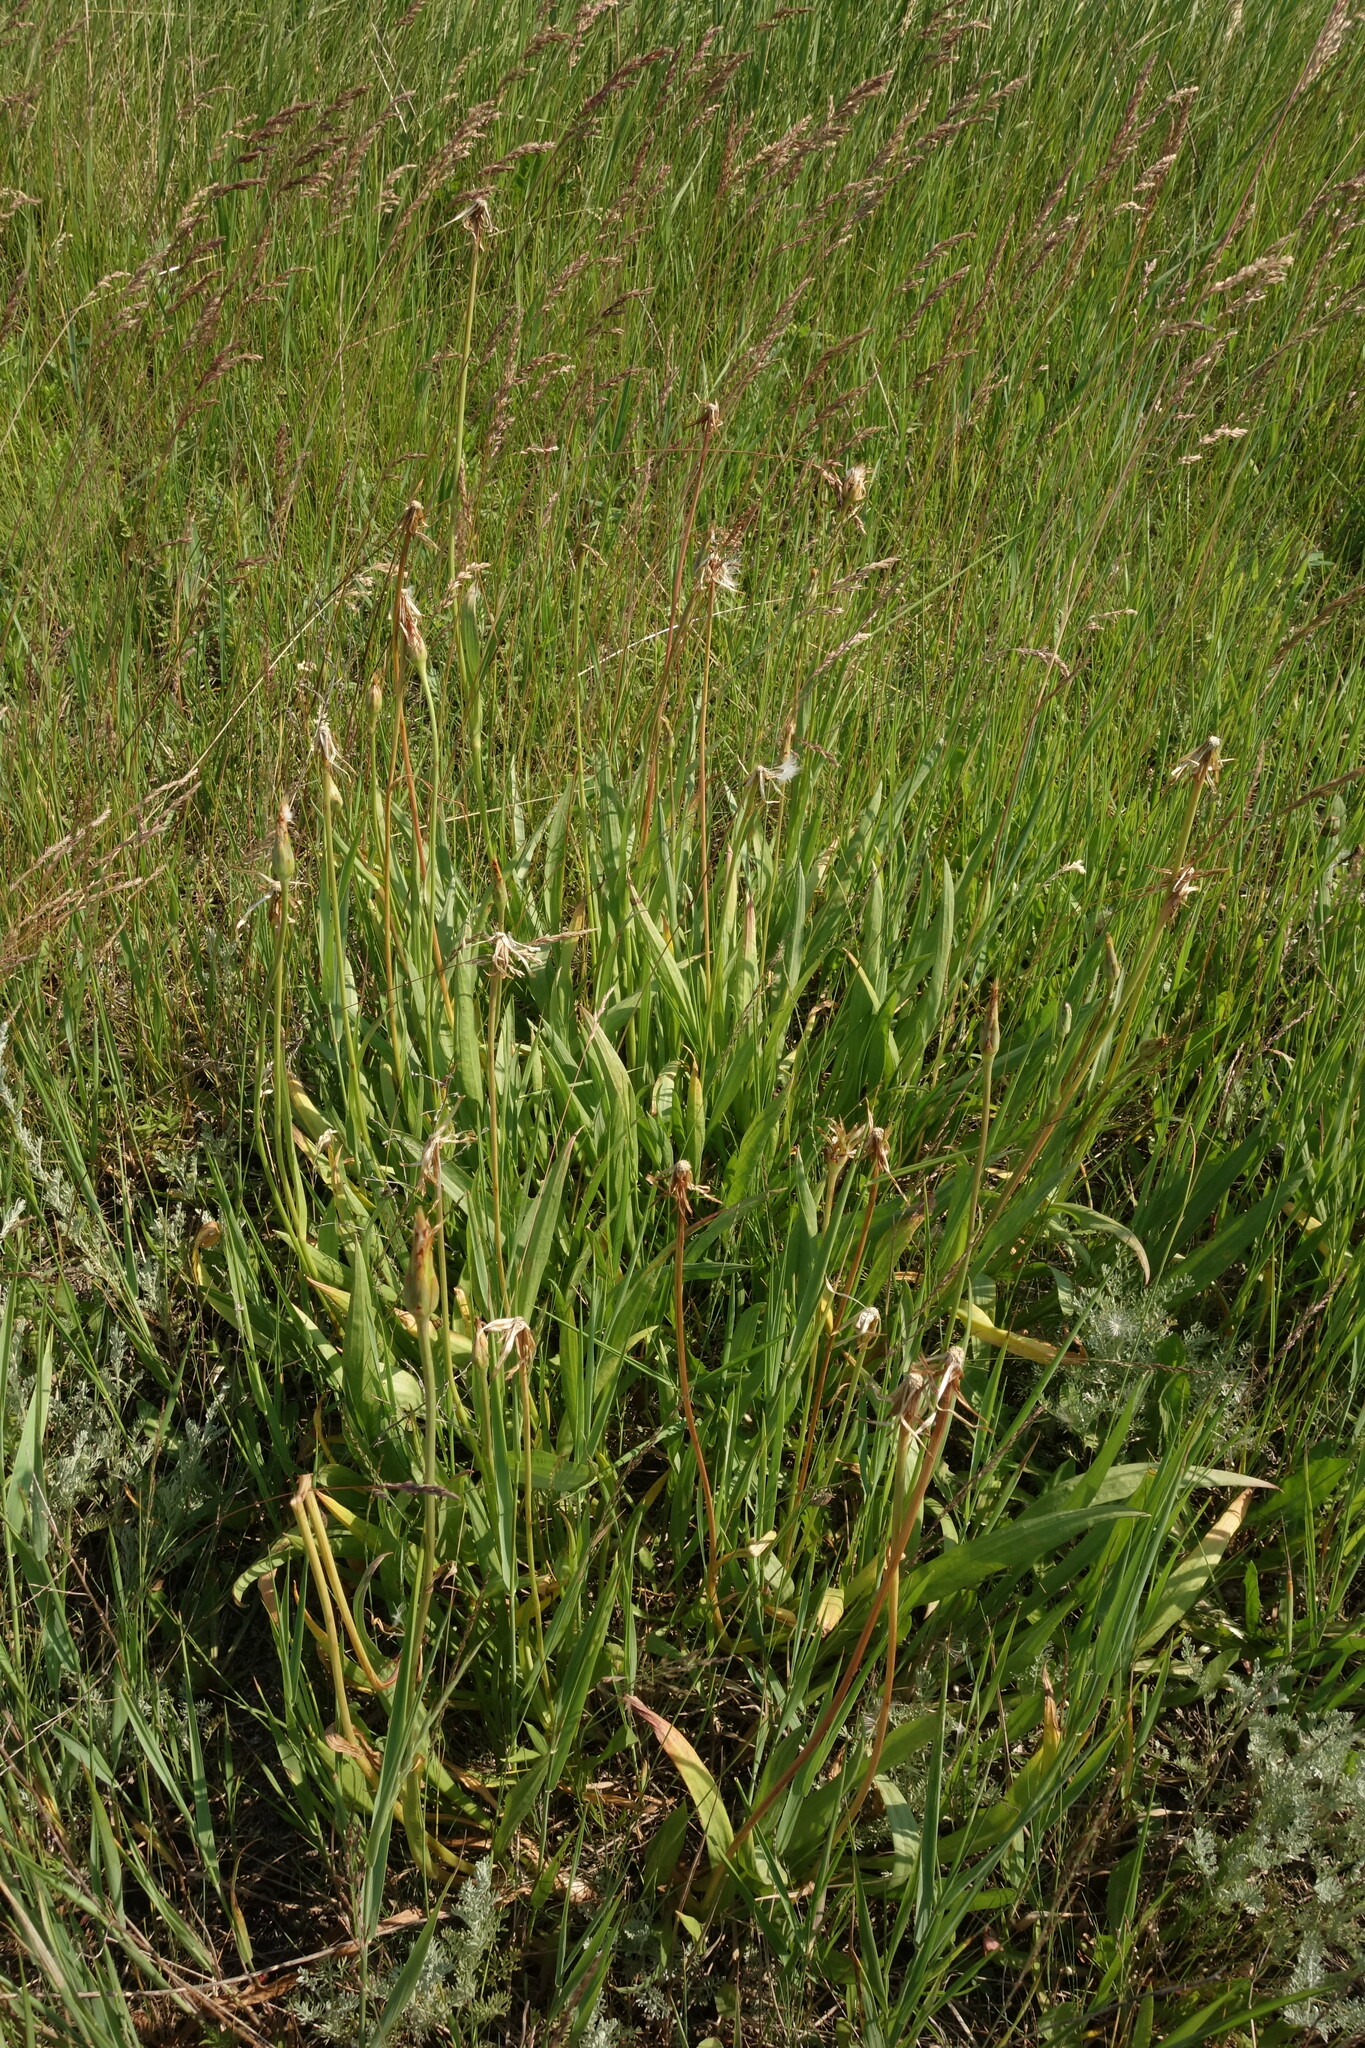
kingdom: Plantae
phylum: Tracheophyta
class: Magnoliopsida
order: Asterales
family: Asteraceae
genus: Scorzonera
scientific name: Scorzonera parviflora
